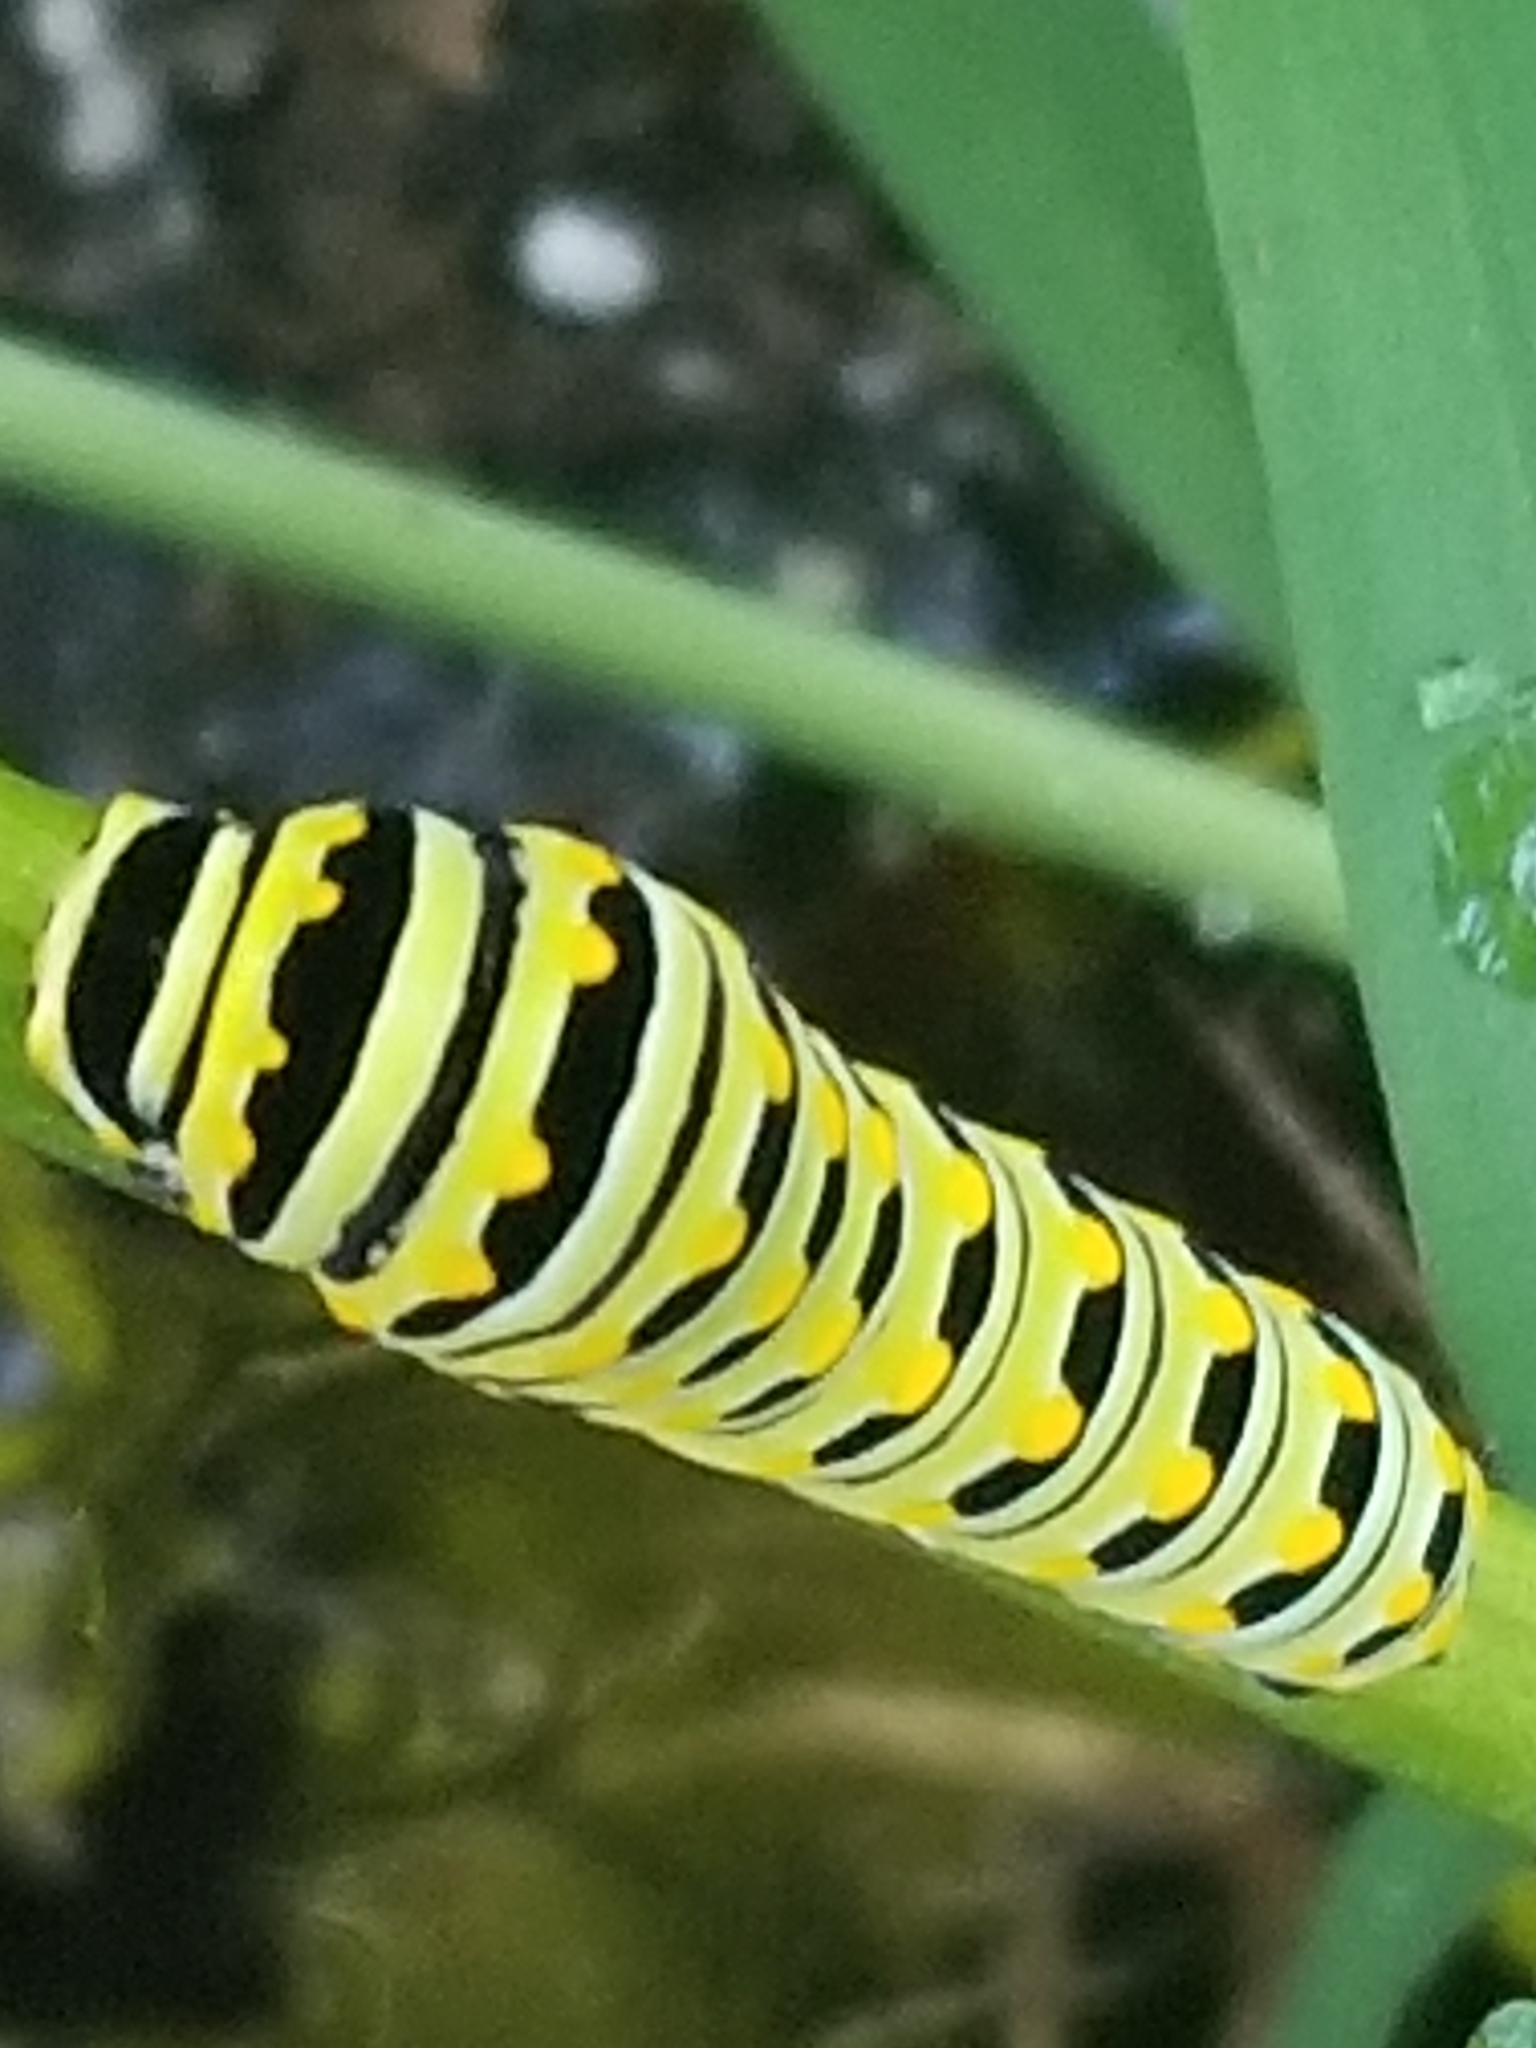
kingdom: Animalia
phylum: Arthropoda
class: Insecta
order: Lepidoptera
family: Papilionidae
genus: Papilio
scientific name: Papilio polyxenes
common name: Black swallowtail
